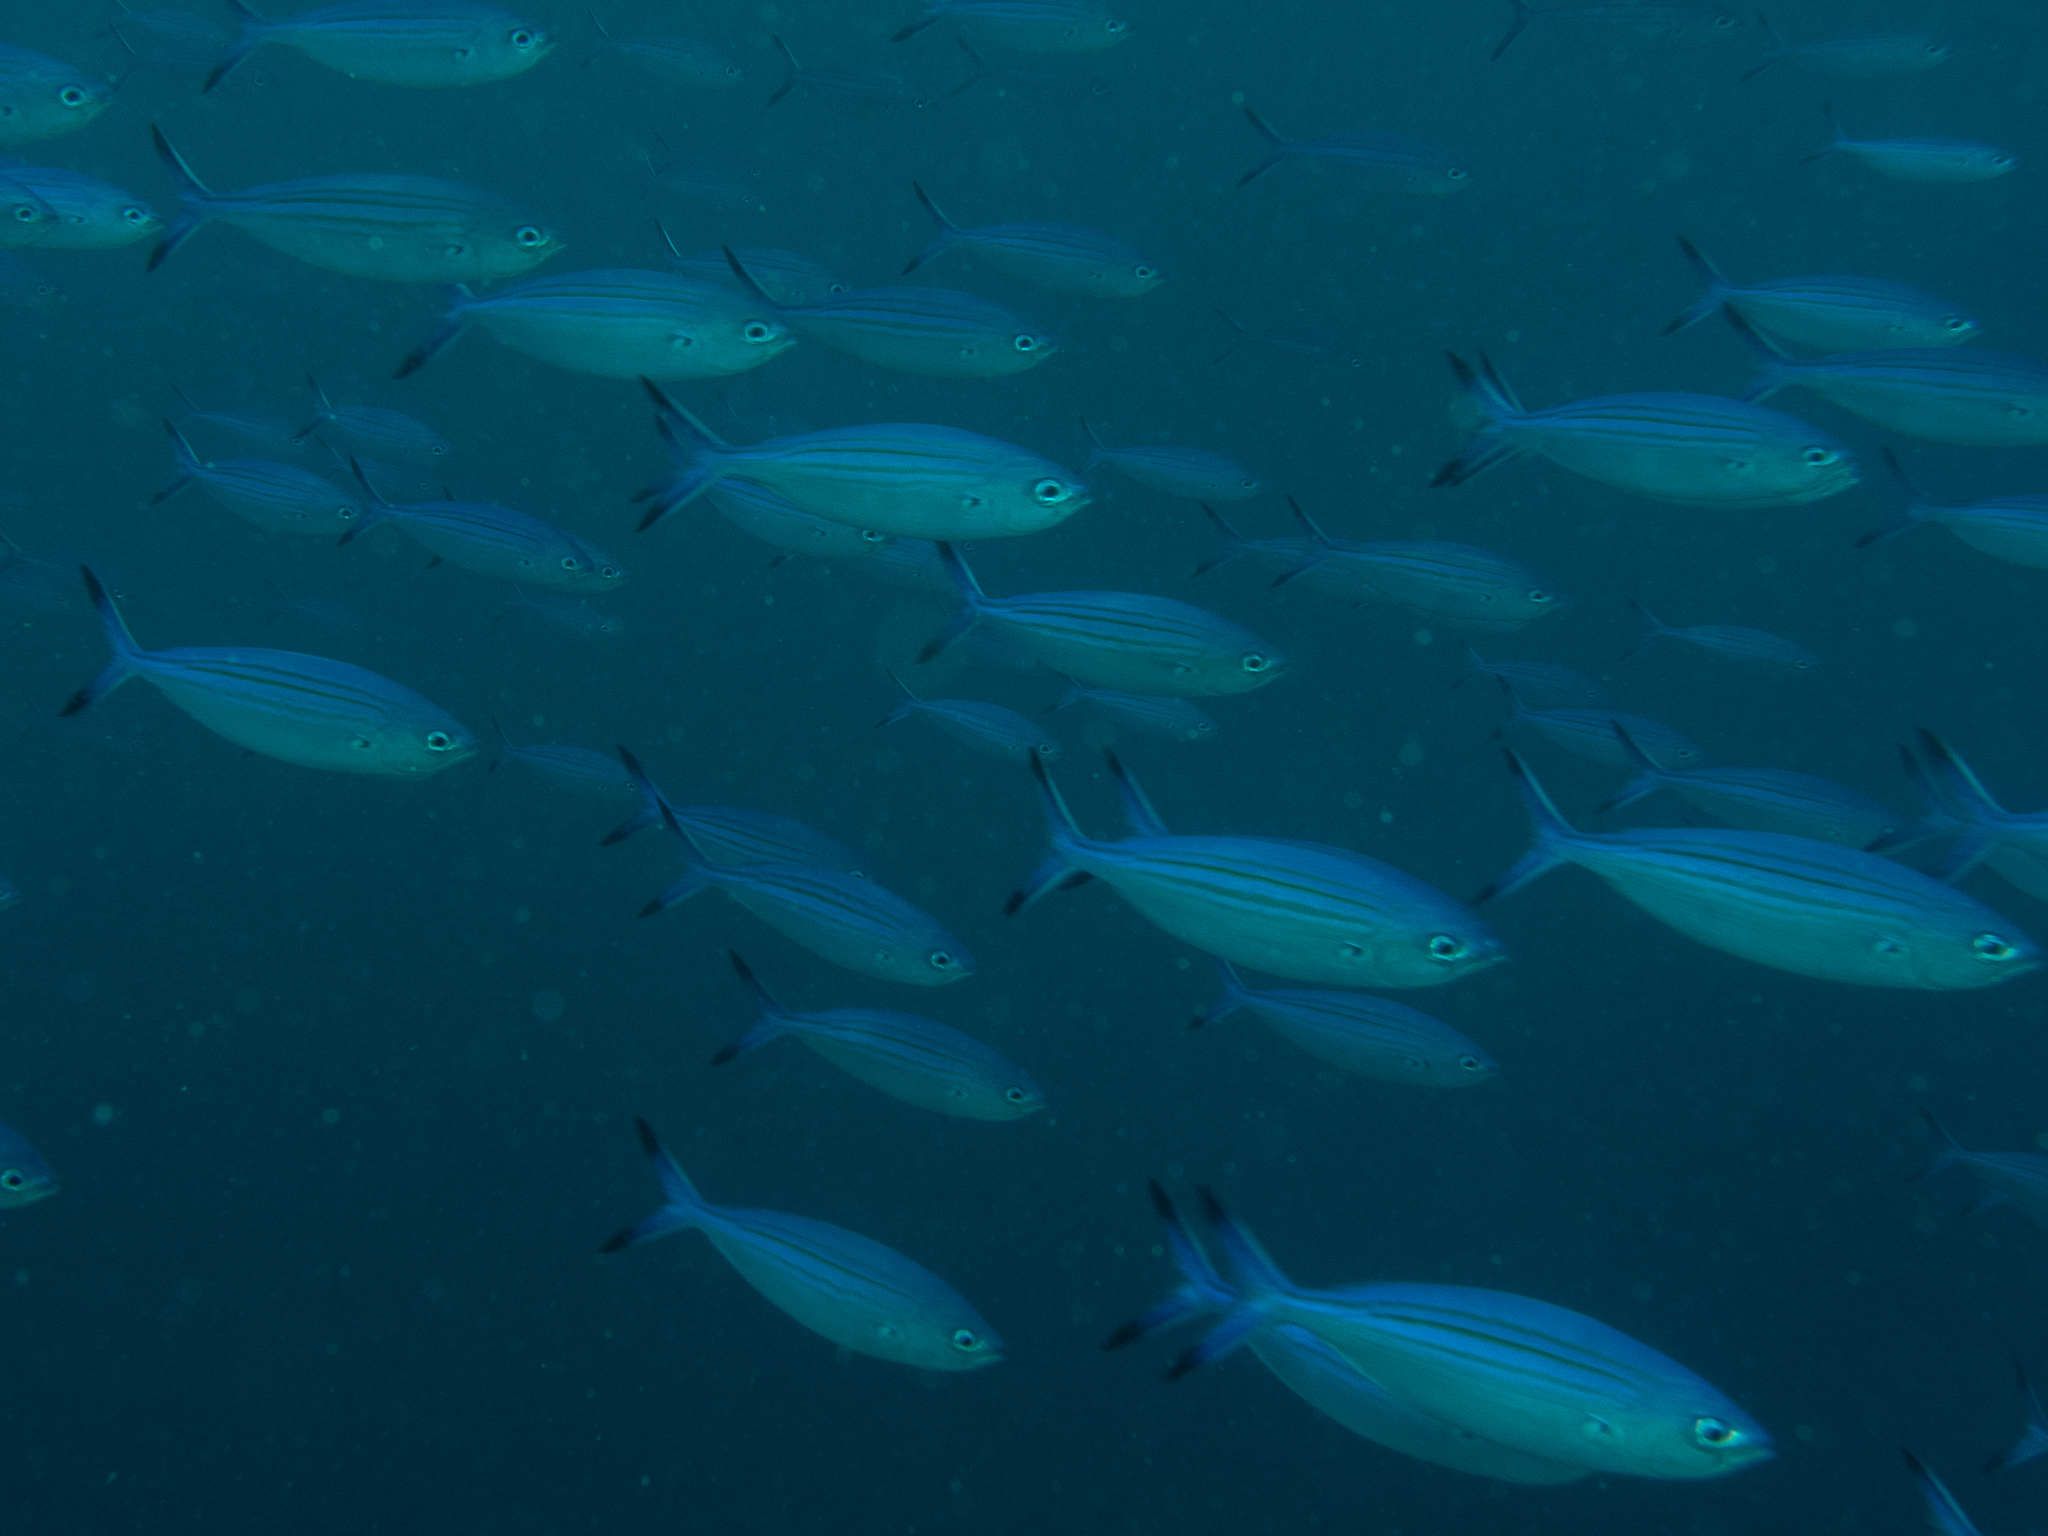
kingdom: Animalia
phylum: Chordata
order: Perciformes
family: Caesionidae
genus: Caesio
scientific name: Caesio varilineata
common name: Variable-lined fusilier
